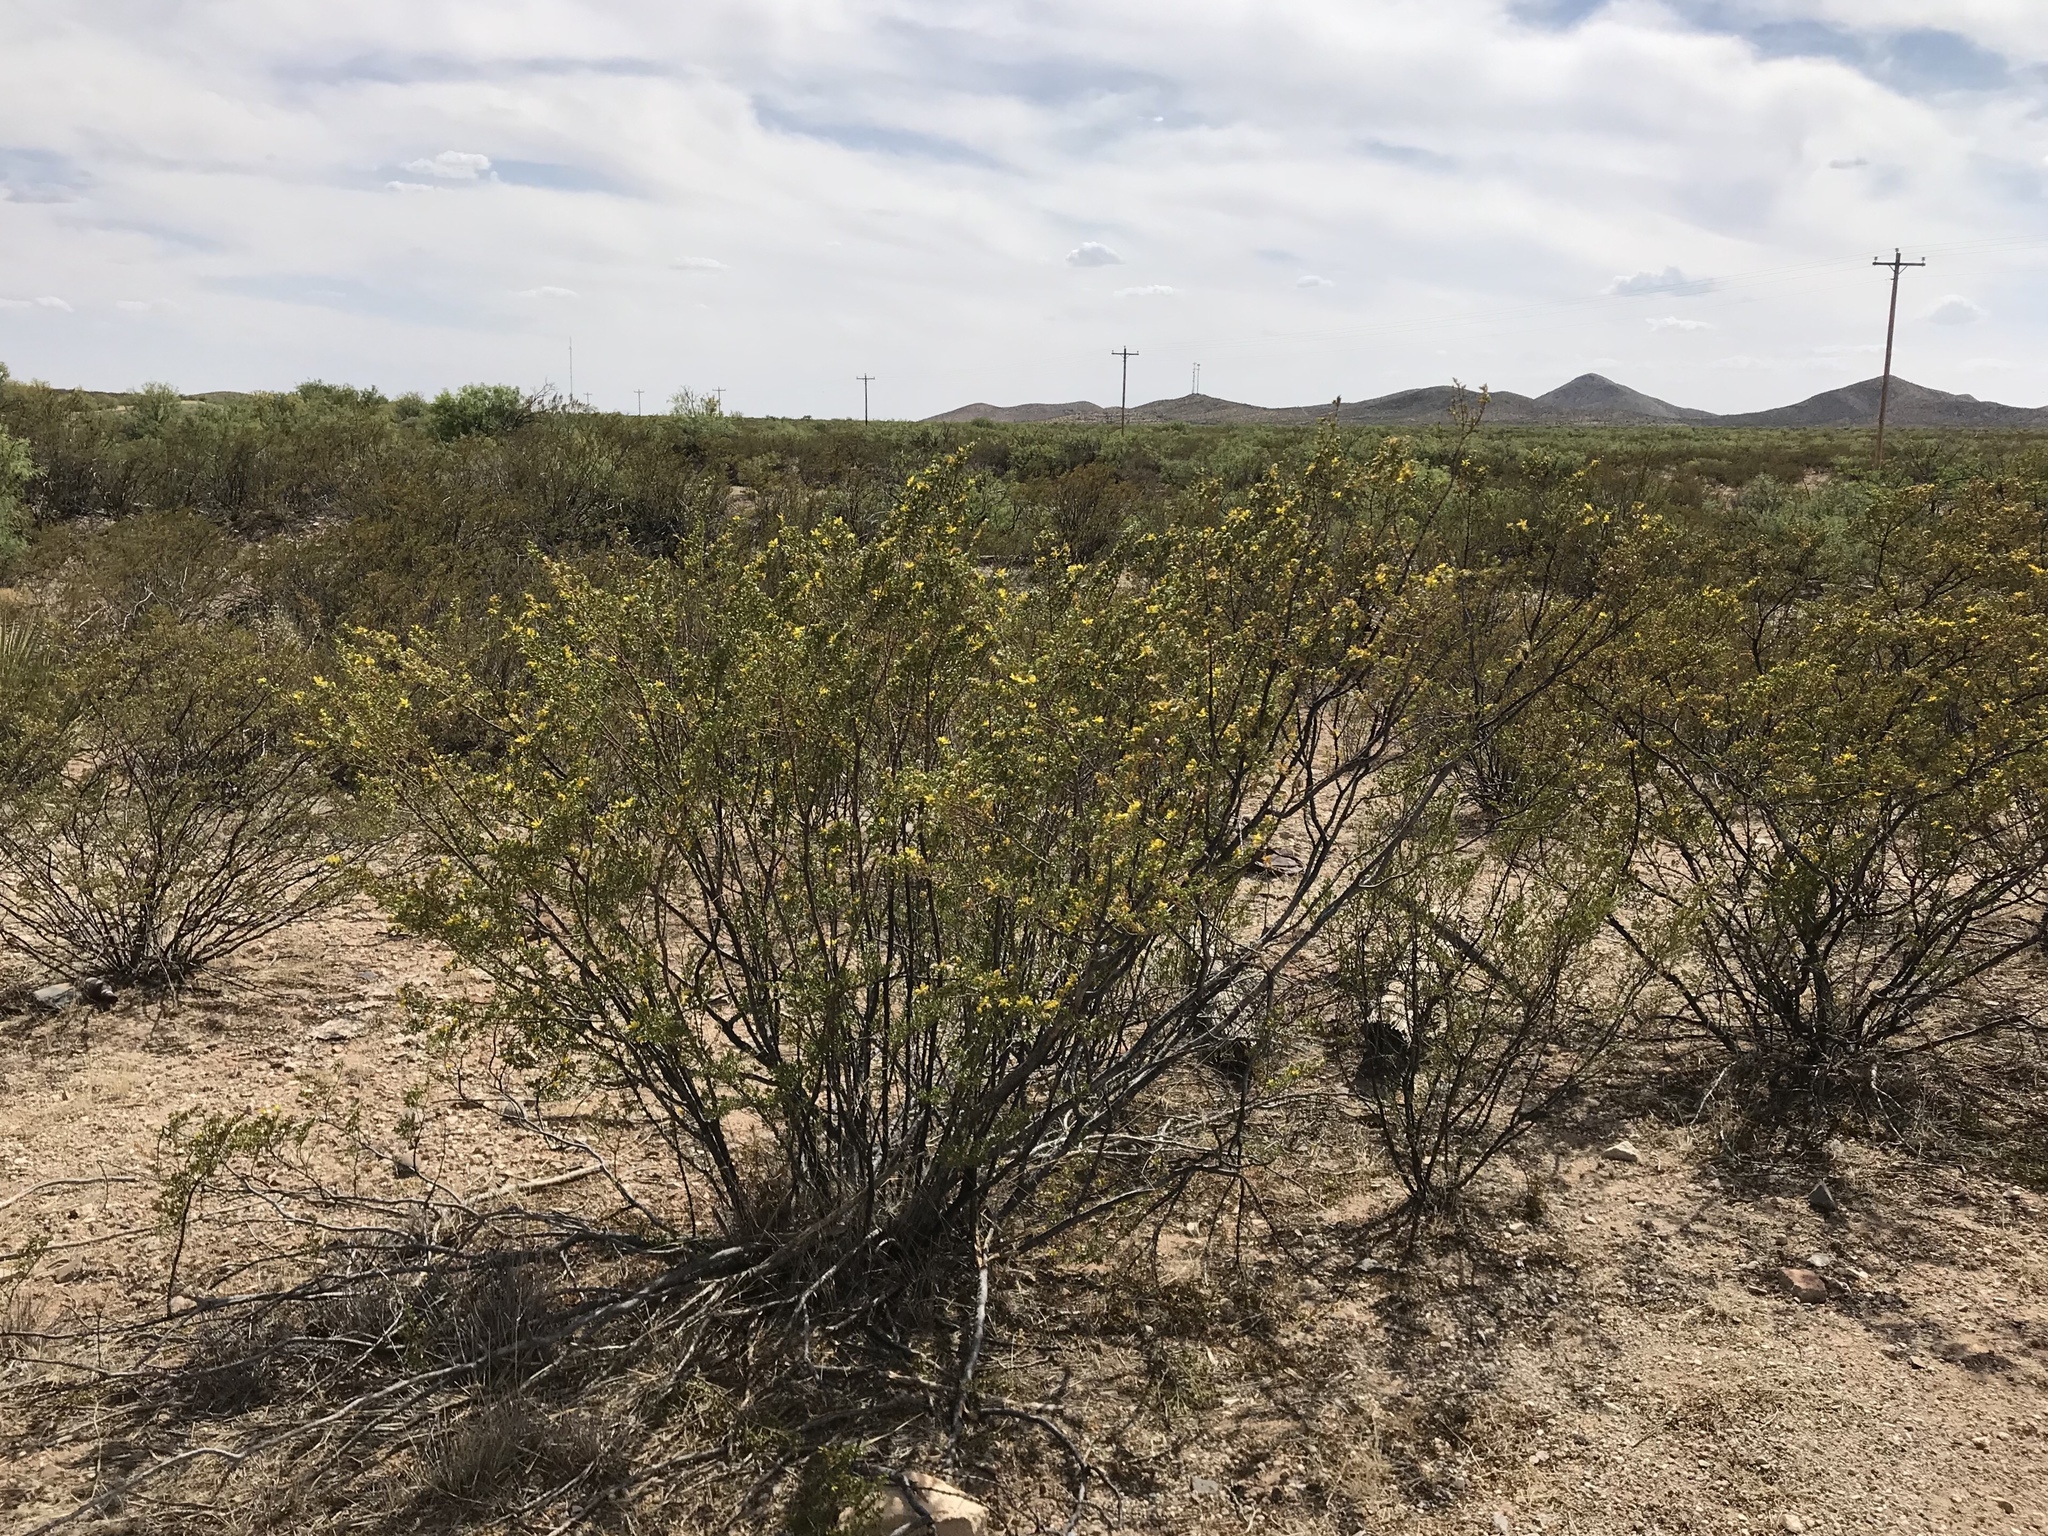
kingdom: Plantae
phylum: Tracheophyta
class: Magnoliopsida
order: Zygophyllales
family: Zygophyllaceae
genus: Larrea
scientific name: Larrea tridentata
